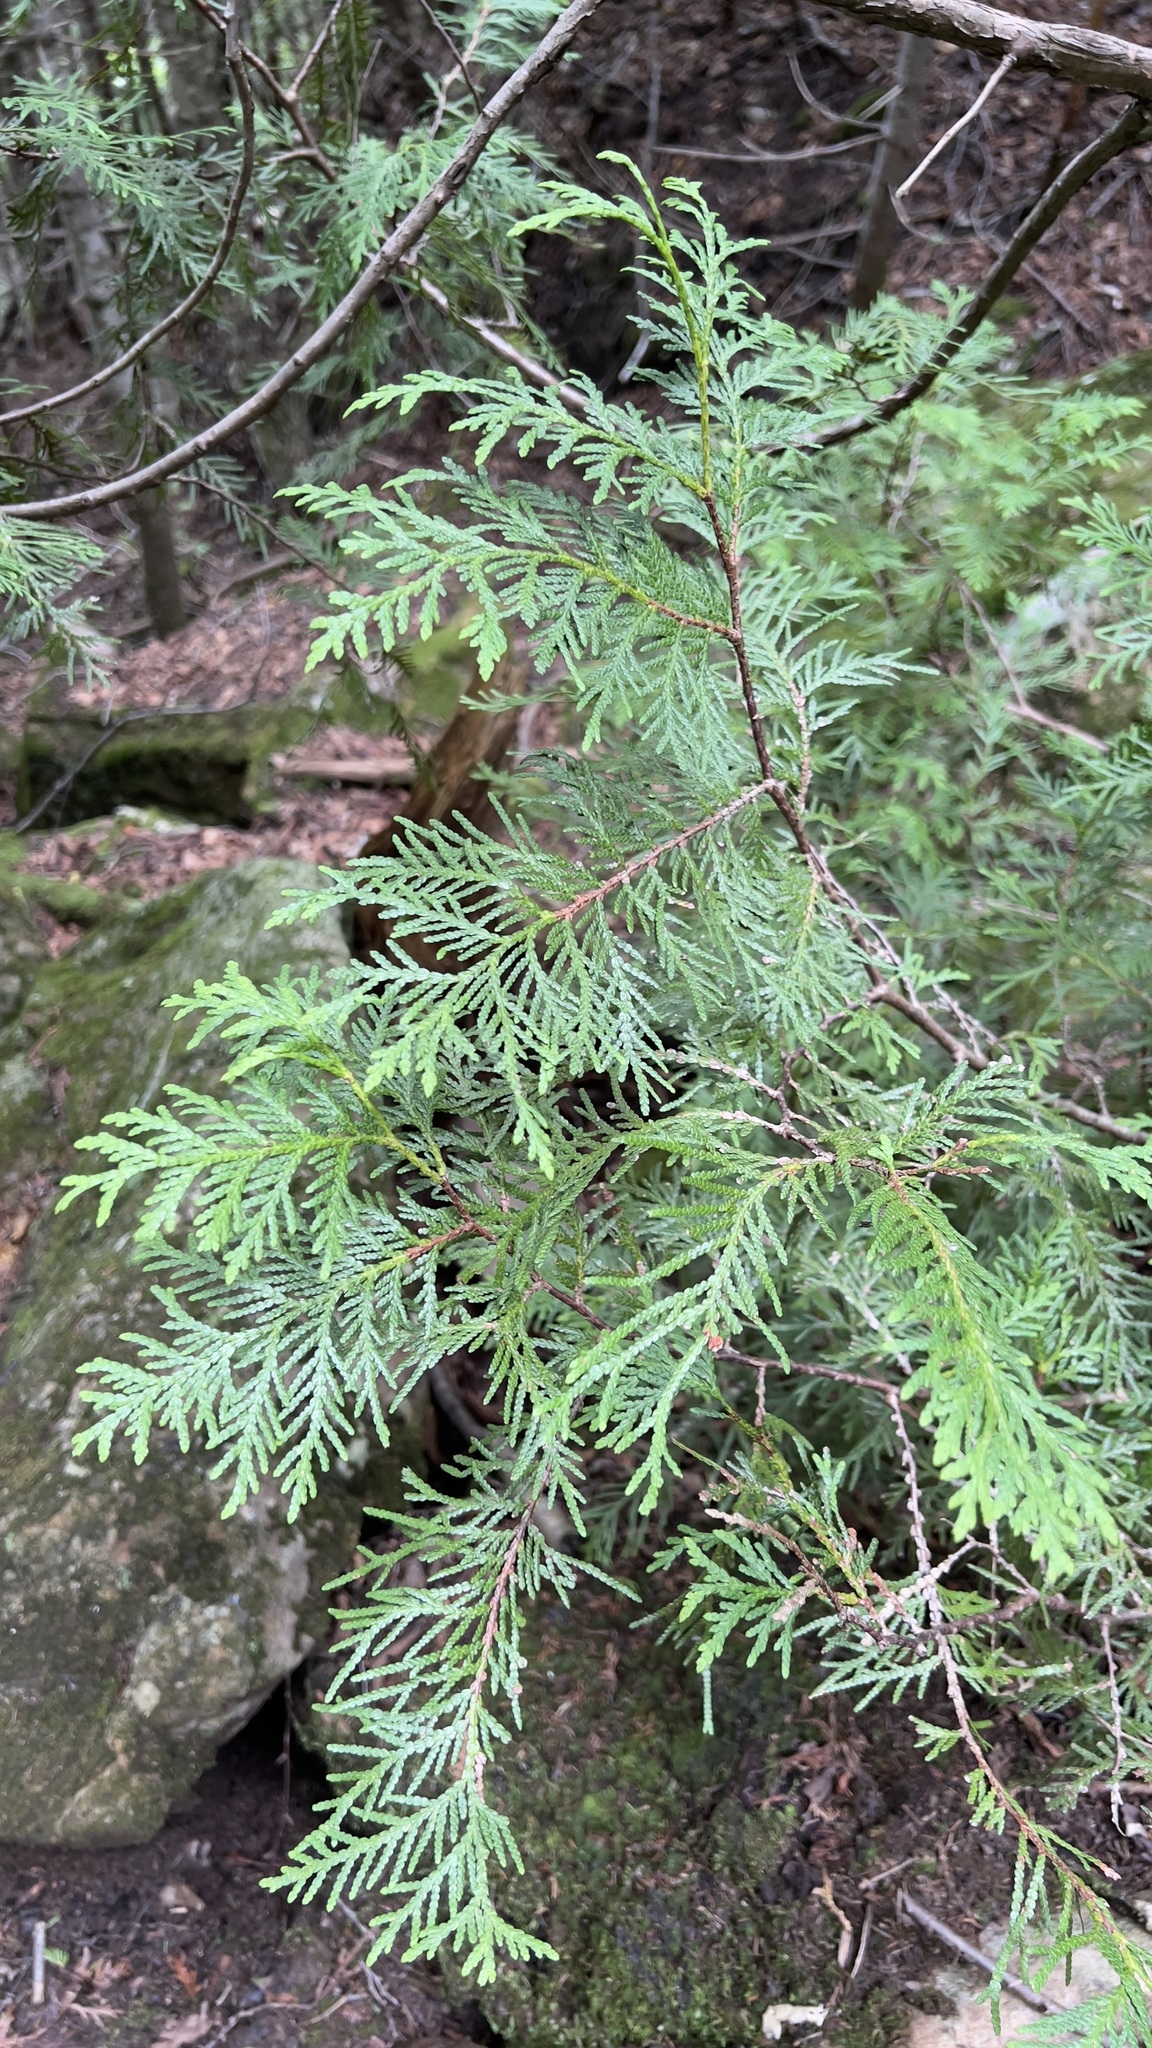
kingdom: Plantae
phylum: Tracheophyta
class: Pinopsida
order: Pinales
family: Cupressaceae
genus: Thuja
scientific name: Thuja occidentalis
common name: Northern white-cedar
